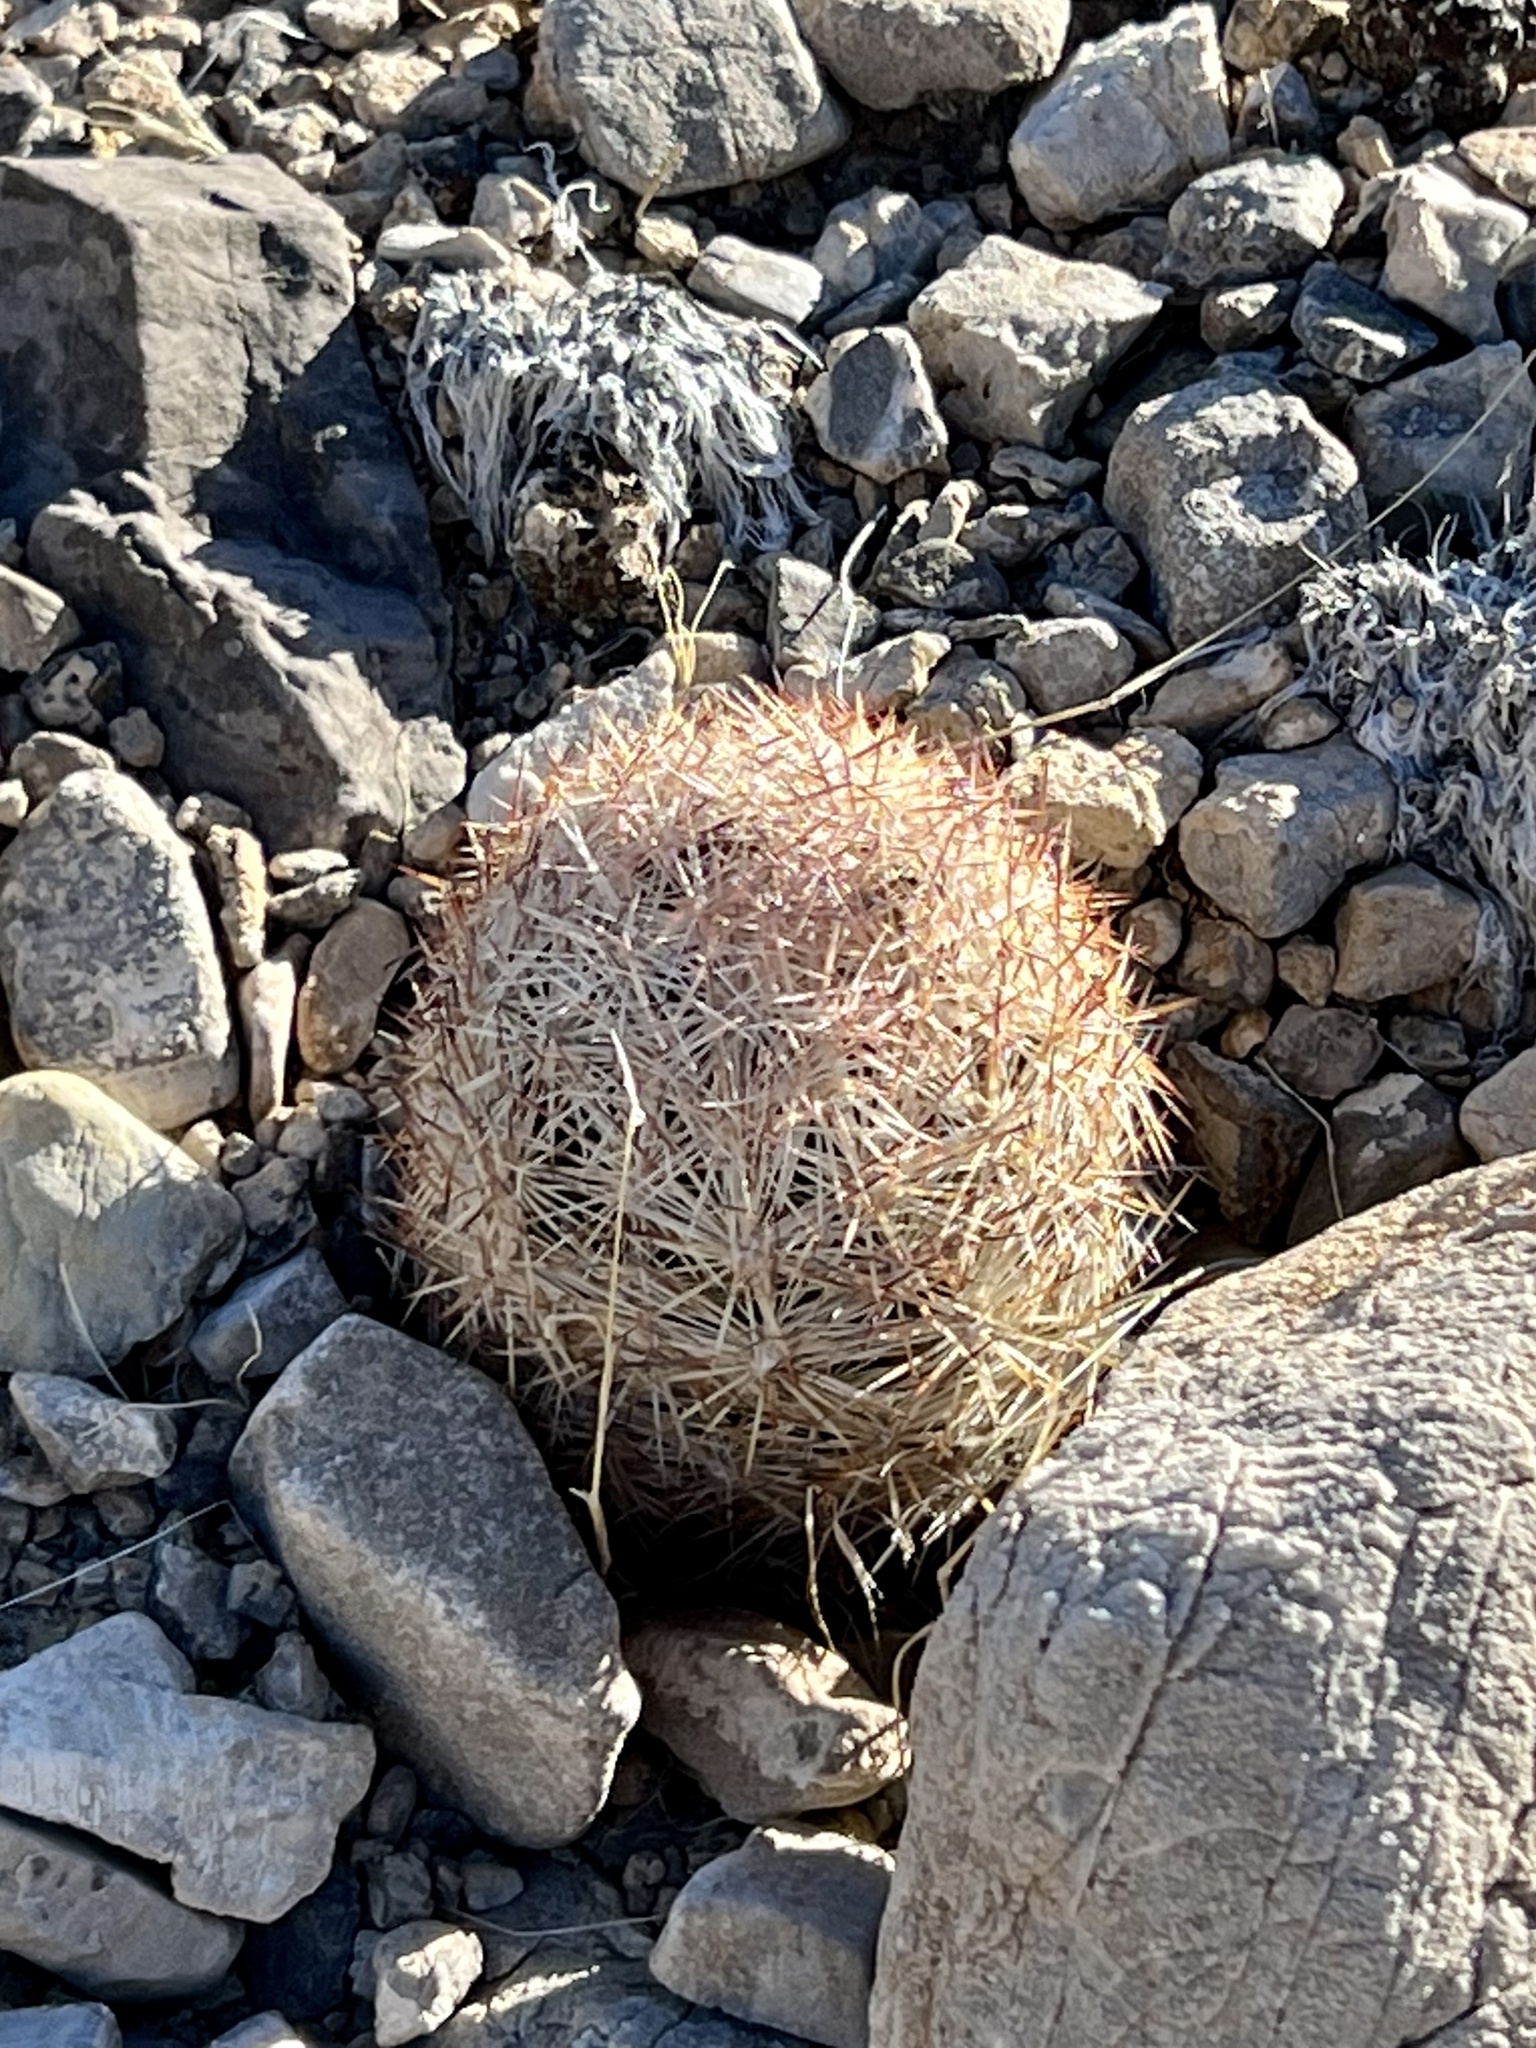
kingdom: Plantae
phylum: Tracheophyta
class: Magnoliopsida
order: Caryophyllales
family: Cactaceae
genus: Pelecyphora
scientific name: Pelecyphora dasyacantha
